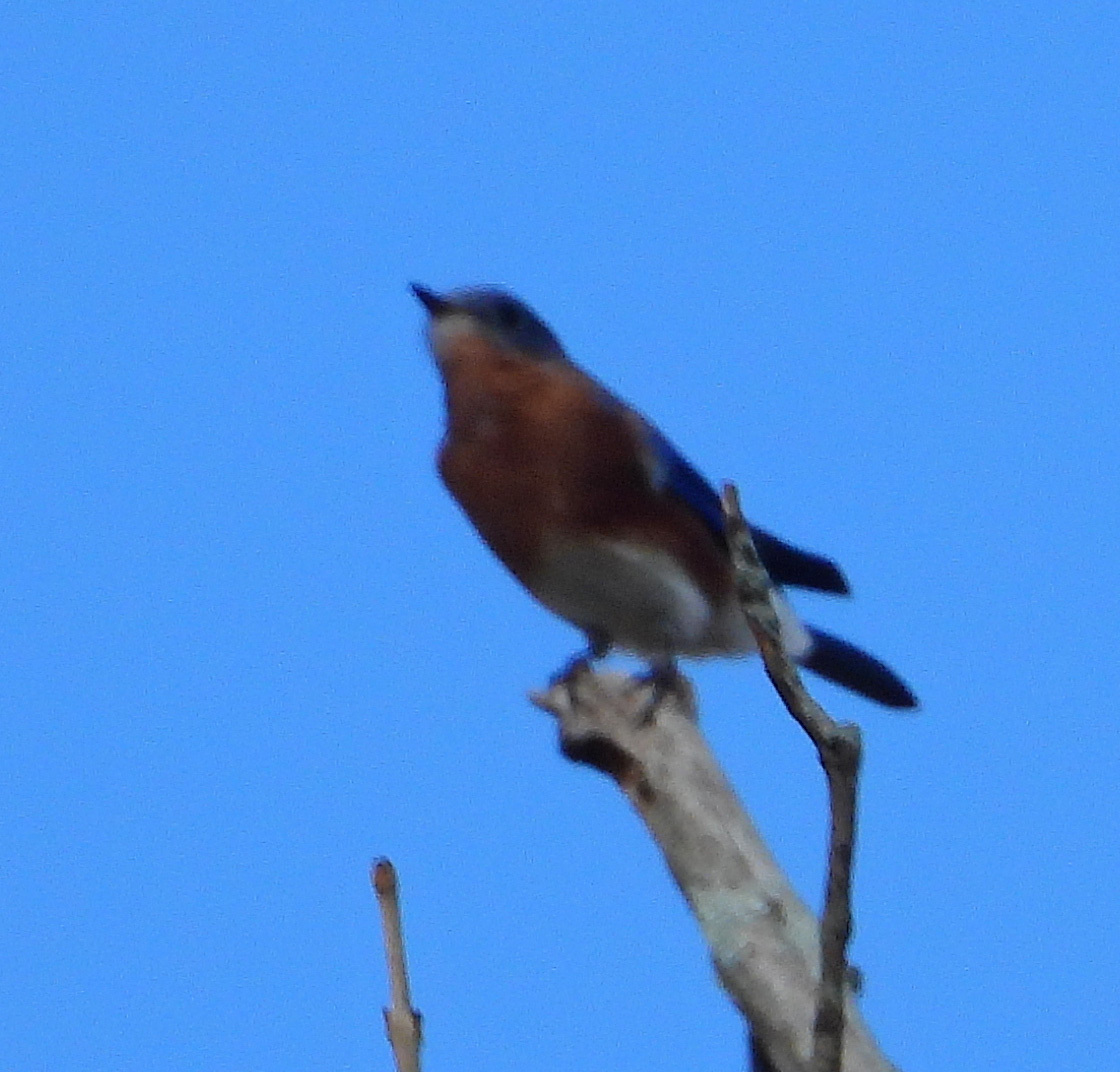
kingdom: Animalia
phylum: Chordata
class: Aves
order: Passeriformes
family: Turdidae
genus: Sialia
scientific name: Sialia sialis
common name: Eastern bluebird
